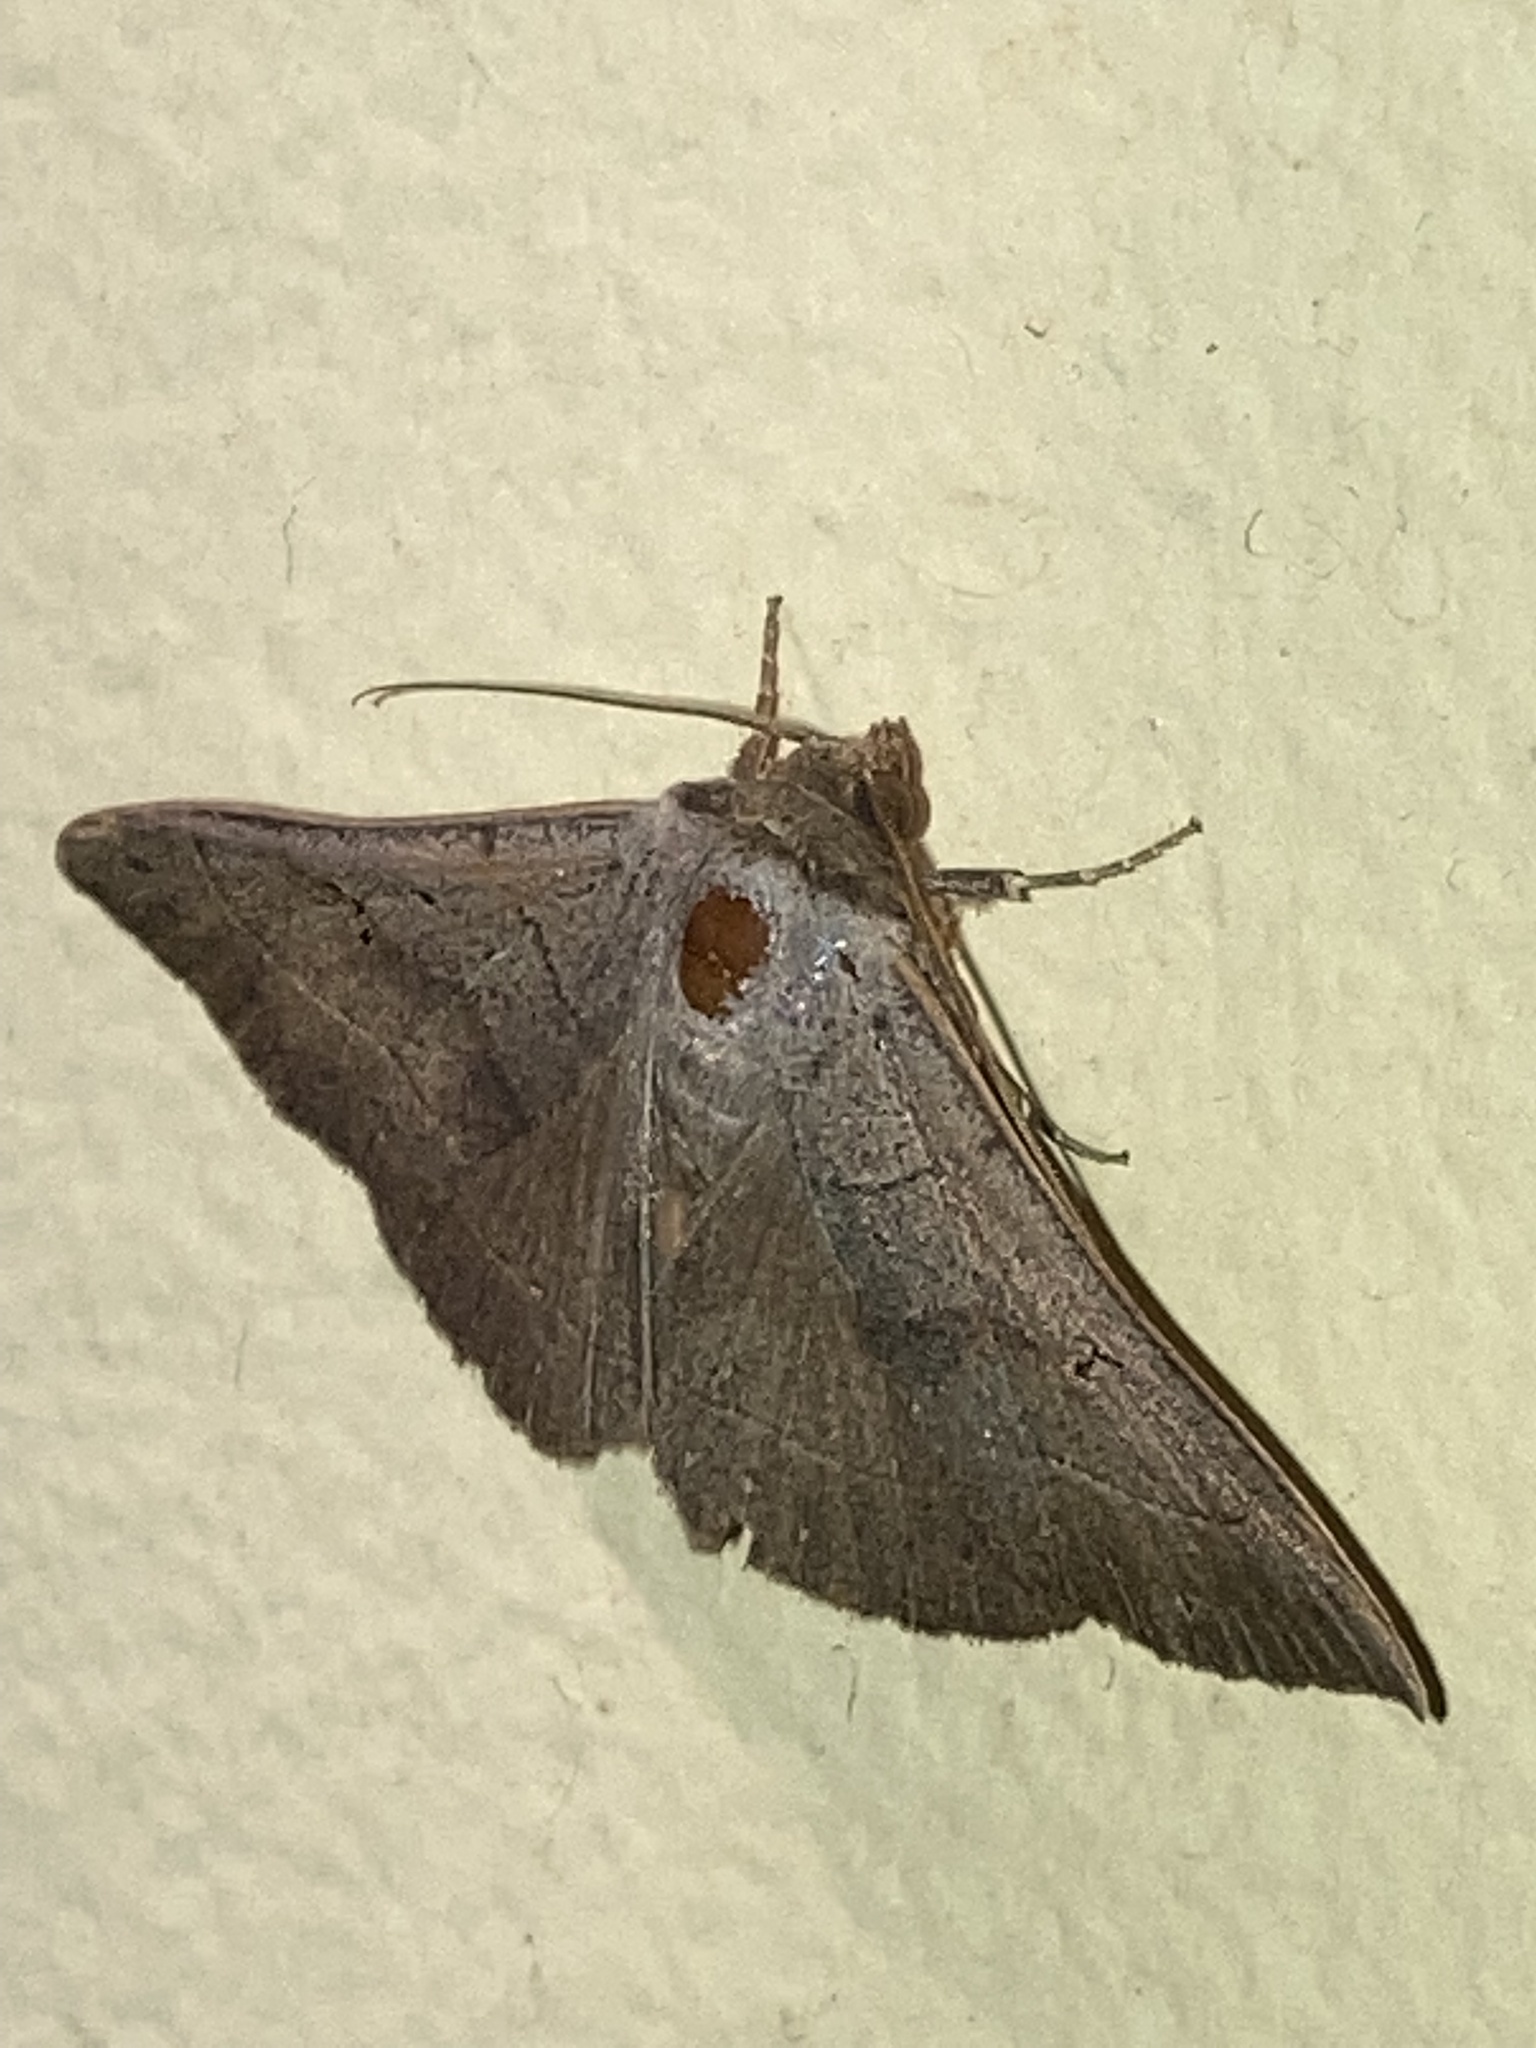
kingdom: Animalia
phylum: Arthropoda
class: Insecta
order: Lepidoptera
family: Erebidae
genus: Panopoda
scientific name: Panopoda carneicosta
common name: Brown panopoda moth
